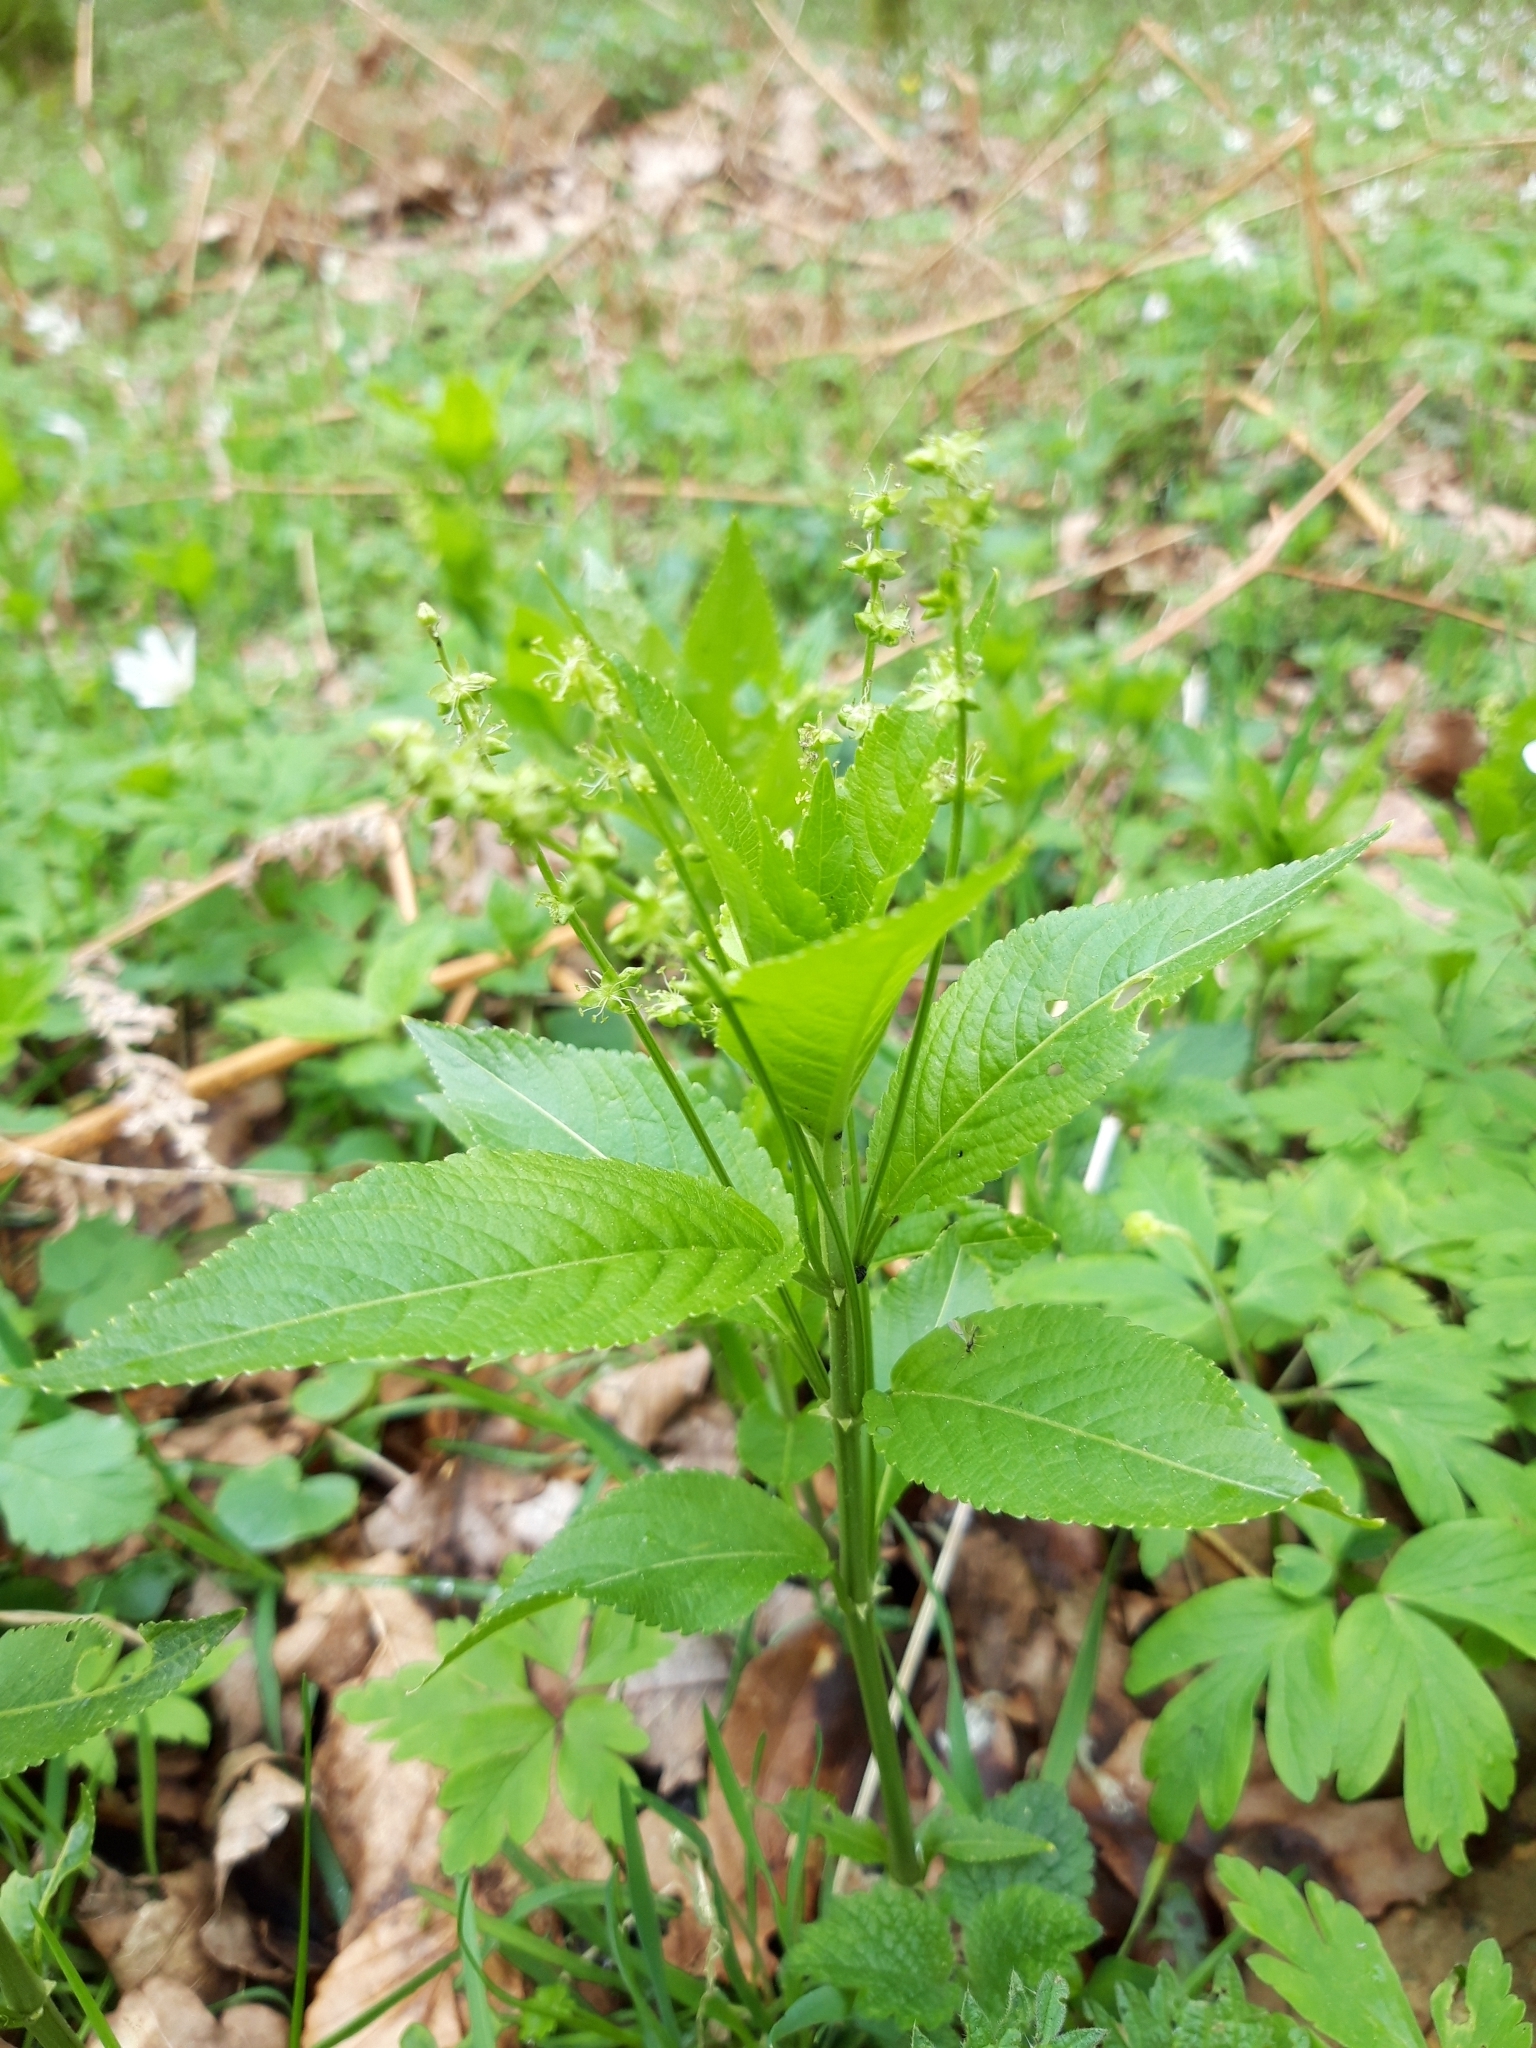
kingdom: Plantae
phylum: Tracheophyta
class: Magnoliopsida
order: Malpighiales
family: Euphorbiaceae
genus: Mercurialis
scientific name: Mercurialis perennis
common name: Dog mercury
